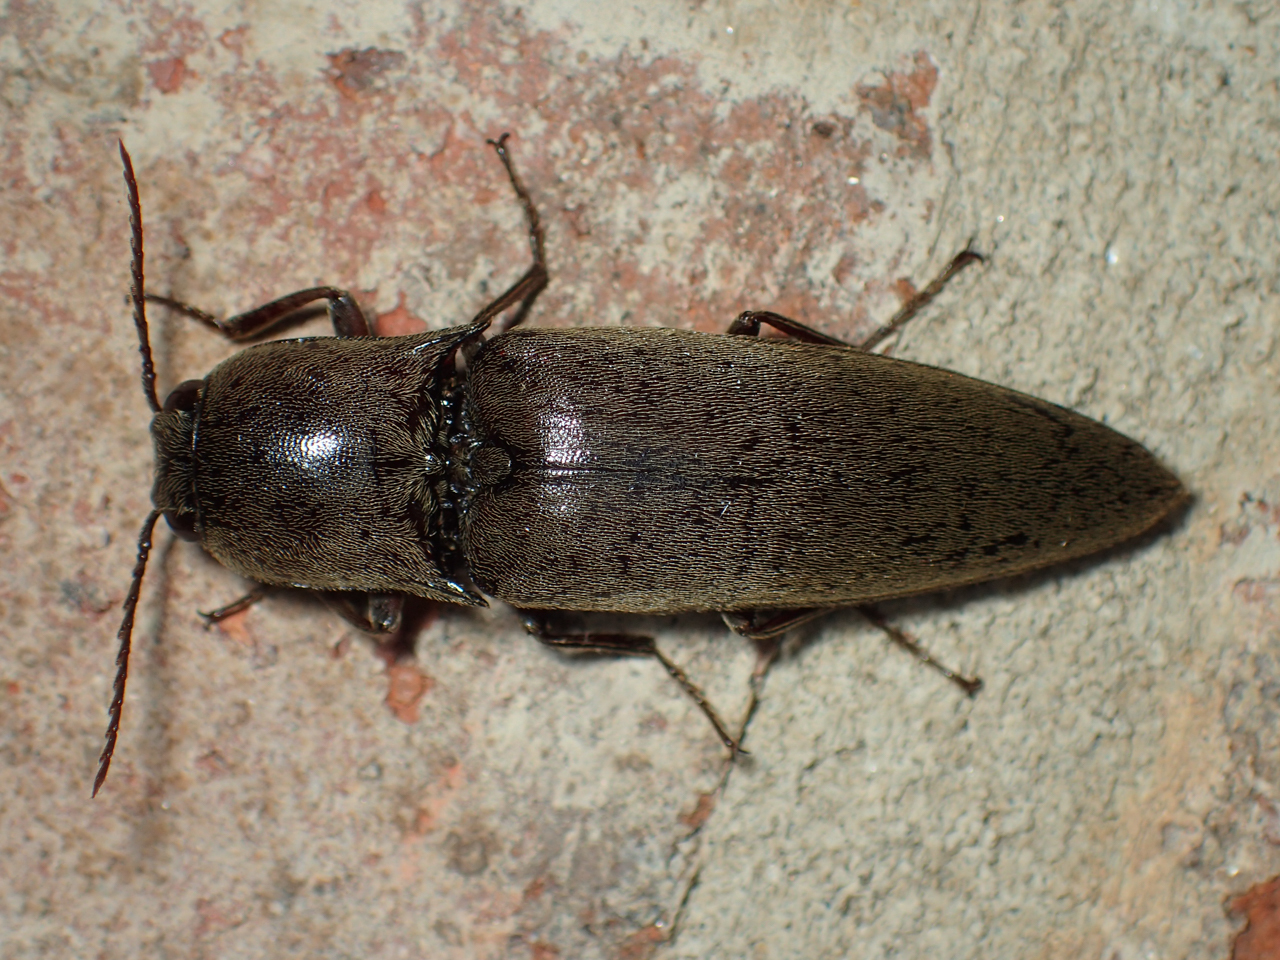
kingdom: Animalia
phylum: Arthropoda
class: Insecta
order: Coleoptera
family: Elateridae
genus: Orthostethus
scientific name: Orthostethus infuscatus
